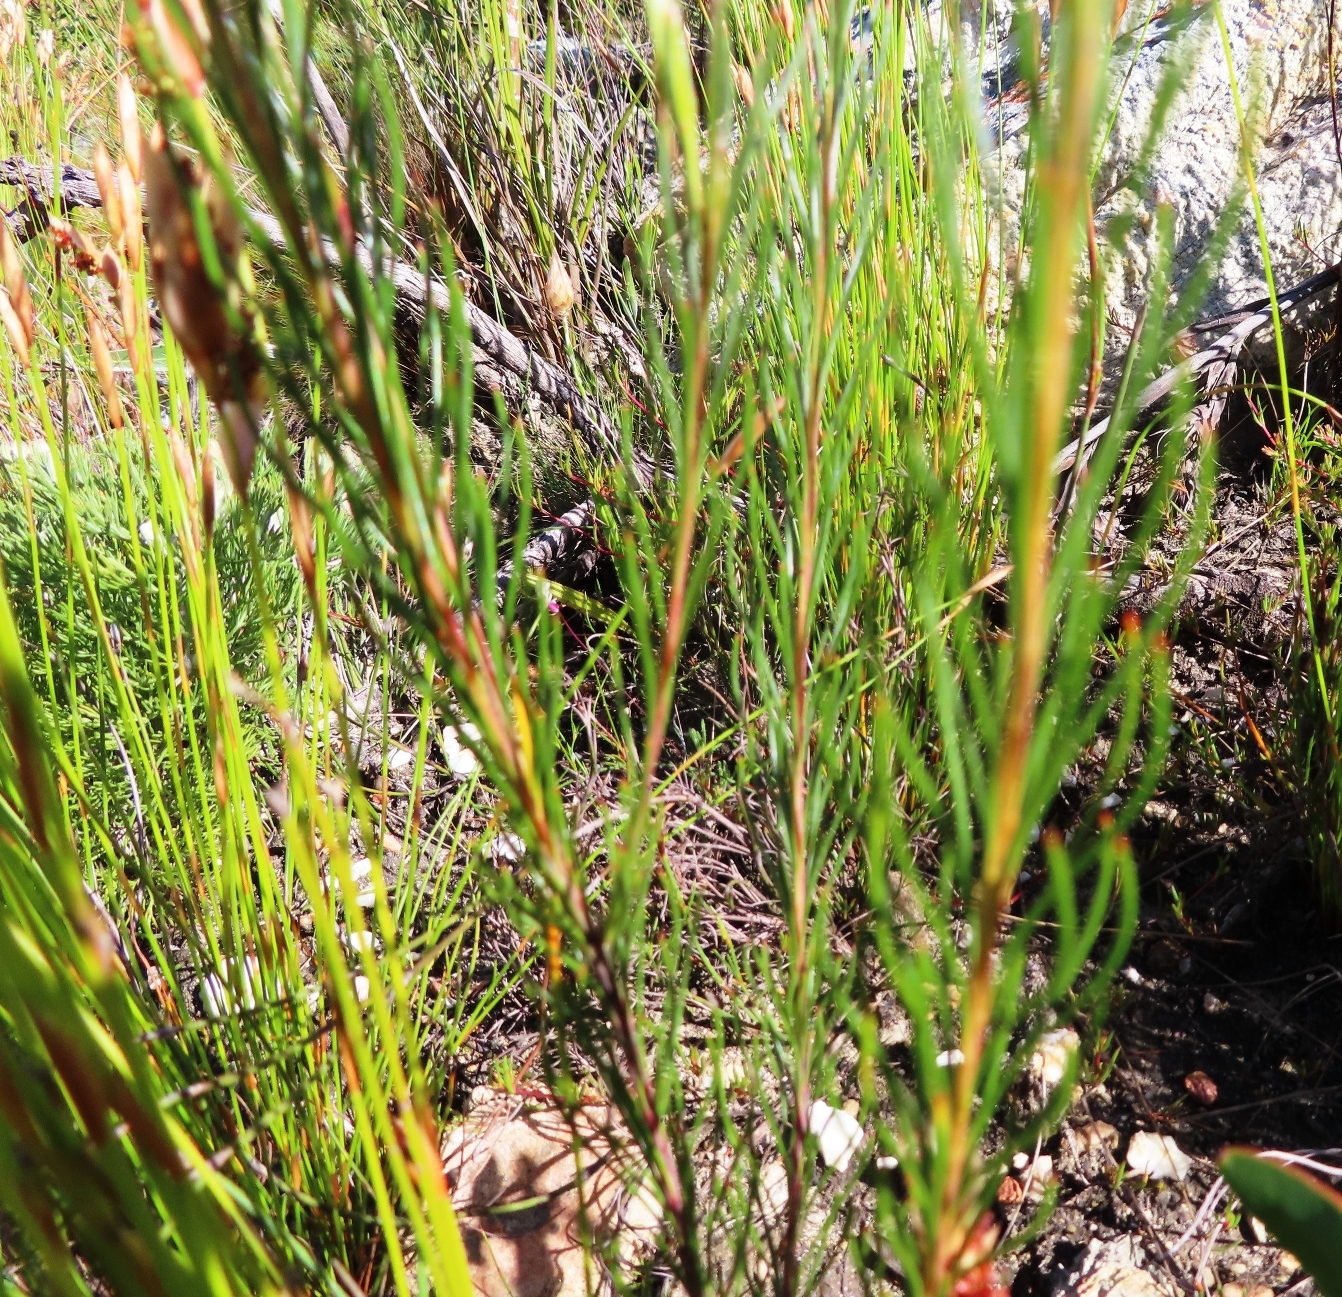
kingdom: Plantae
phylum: Tracheophyta
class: Magnoliopsida
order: Proteales
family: Proteaceae
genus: Spatalla
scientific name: Spatalla racemosa
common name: Lax-stalked spoon
